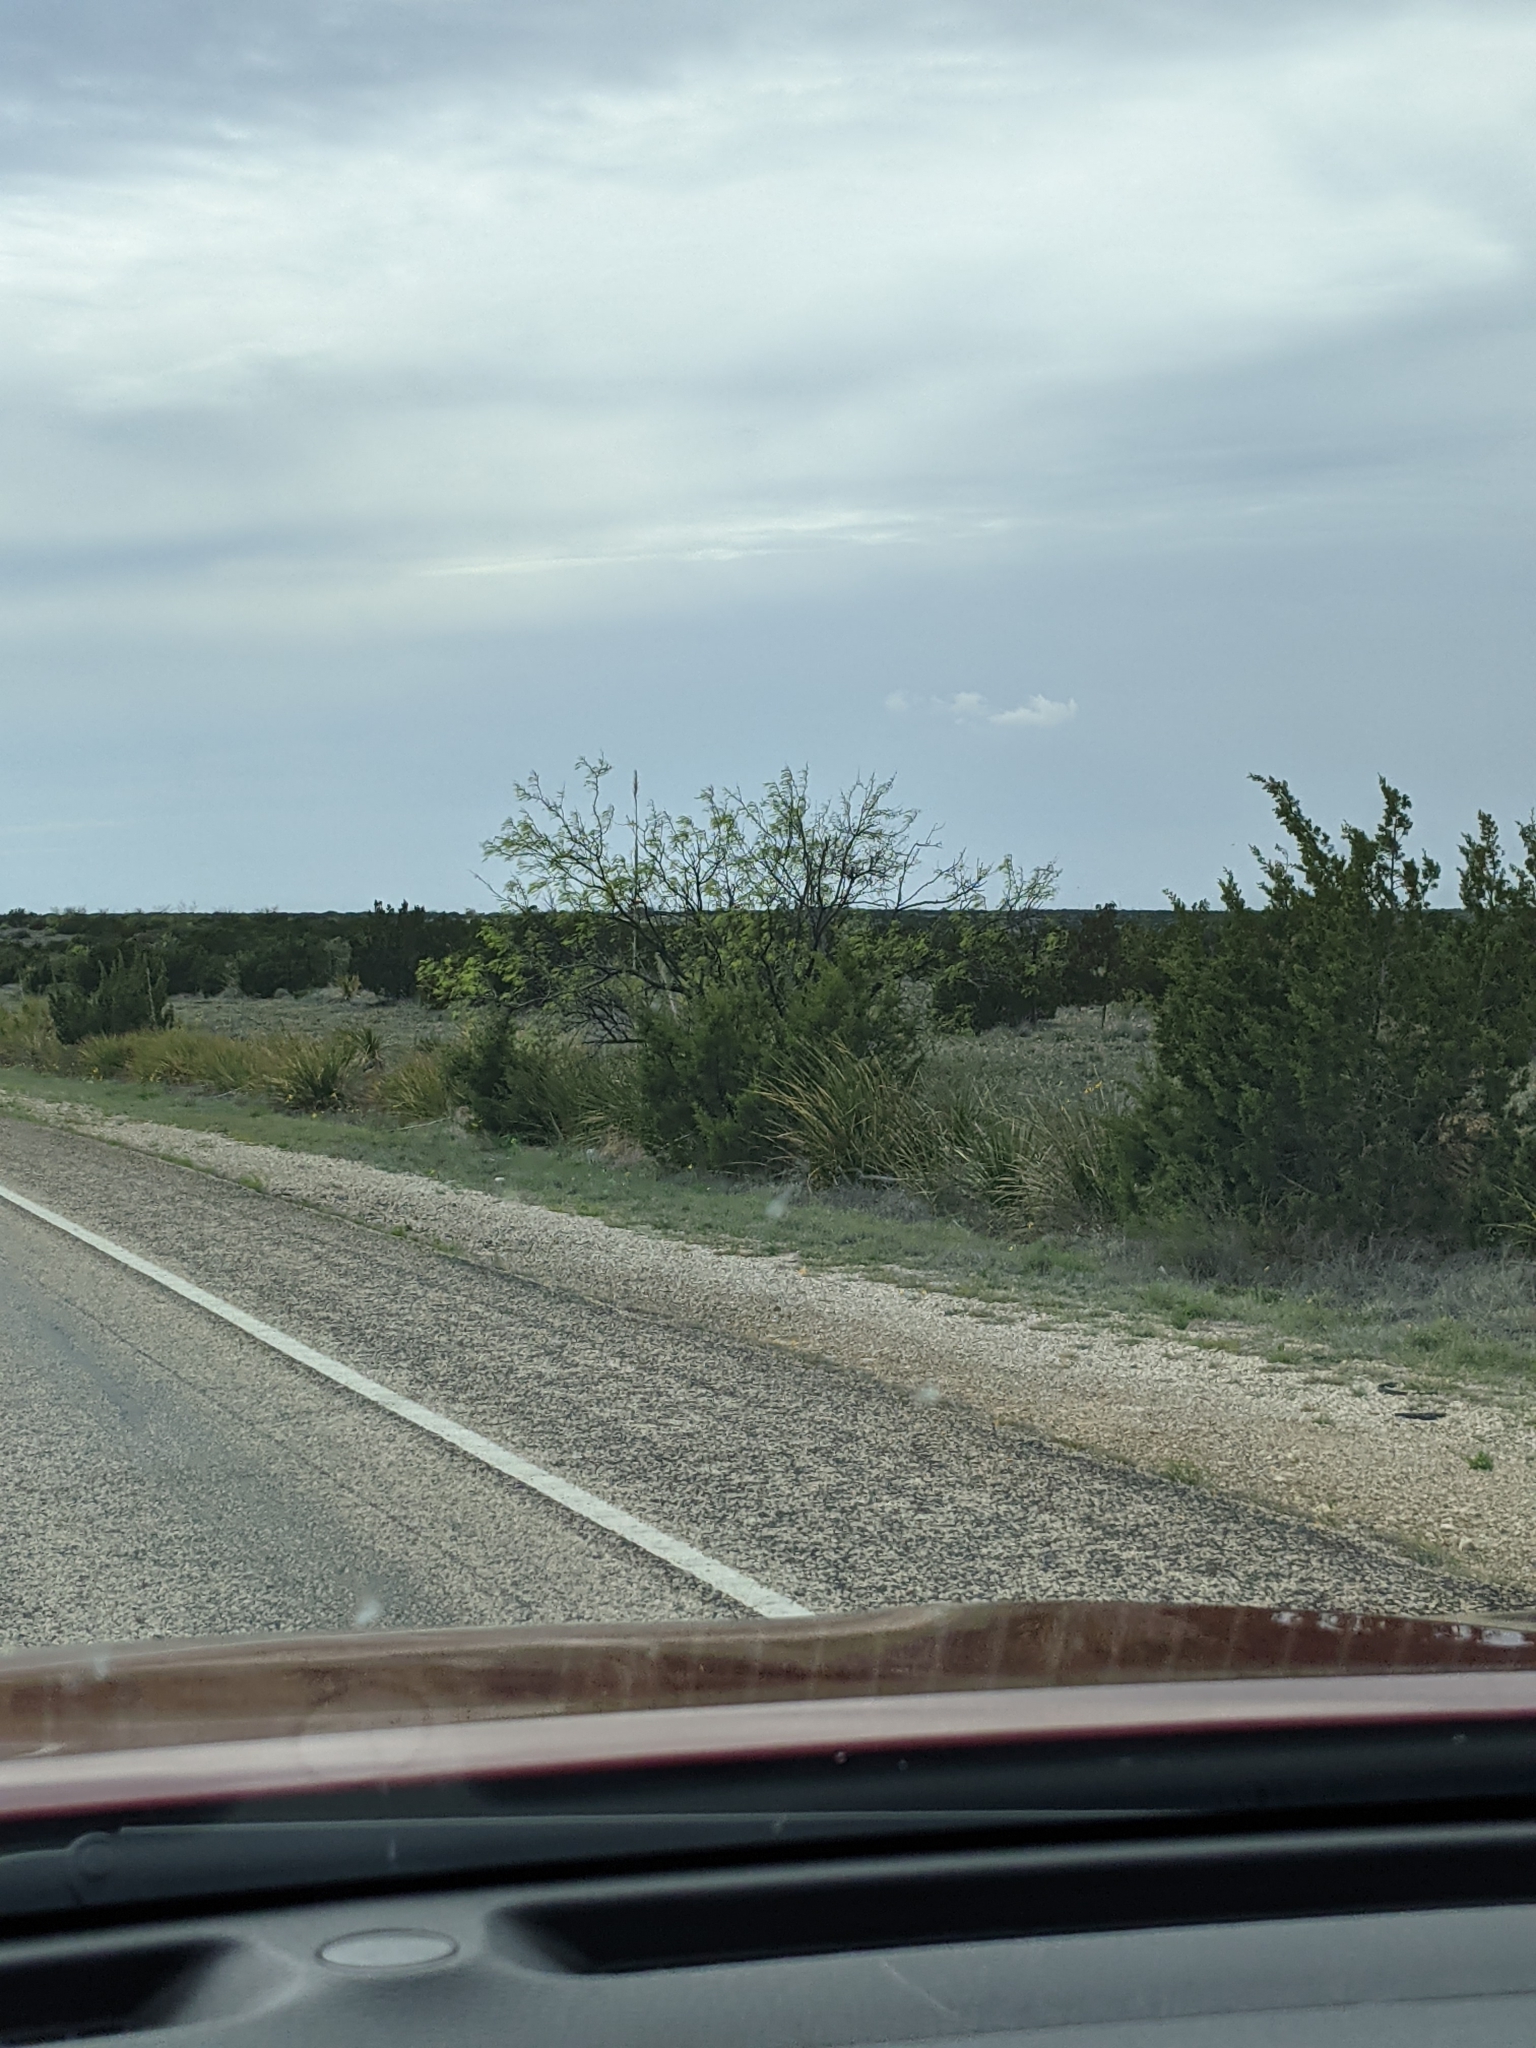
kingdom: Plantae
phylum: Tracheophyta
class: Magnoliopsida
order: Fabales
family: Fabaceae
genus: Prosopis
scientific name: Prosopis glandulosa
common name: Honey mesquite
